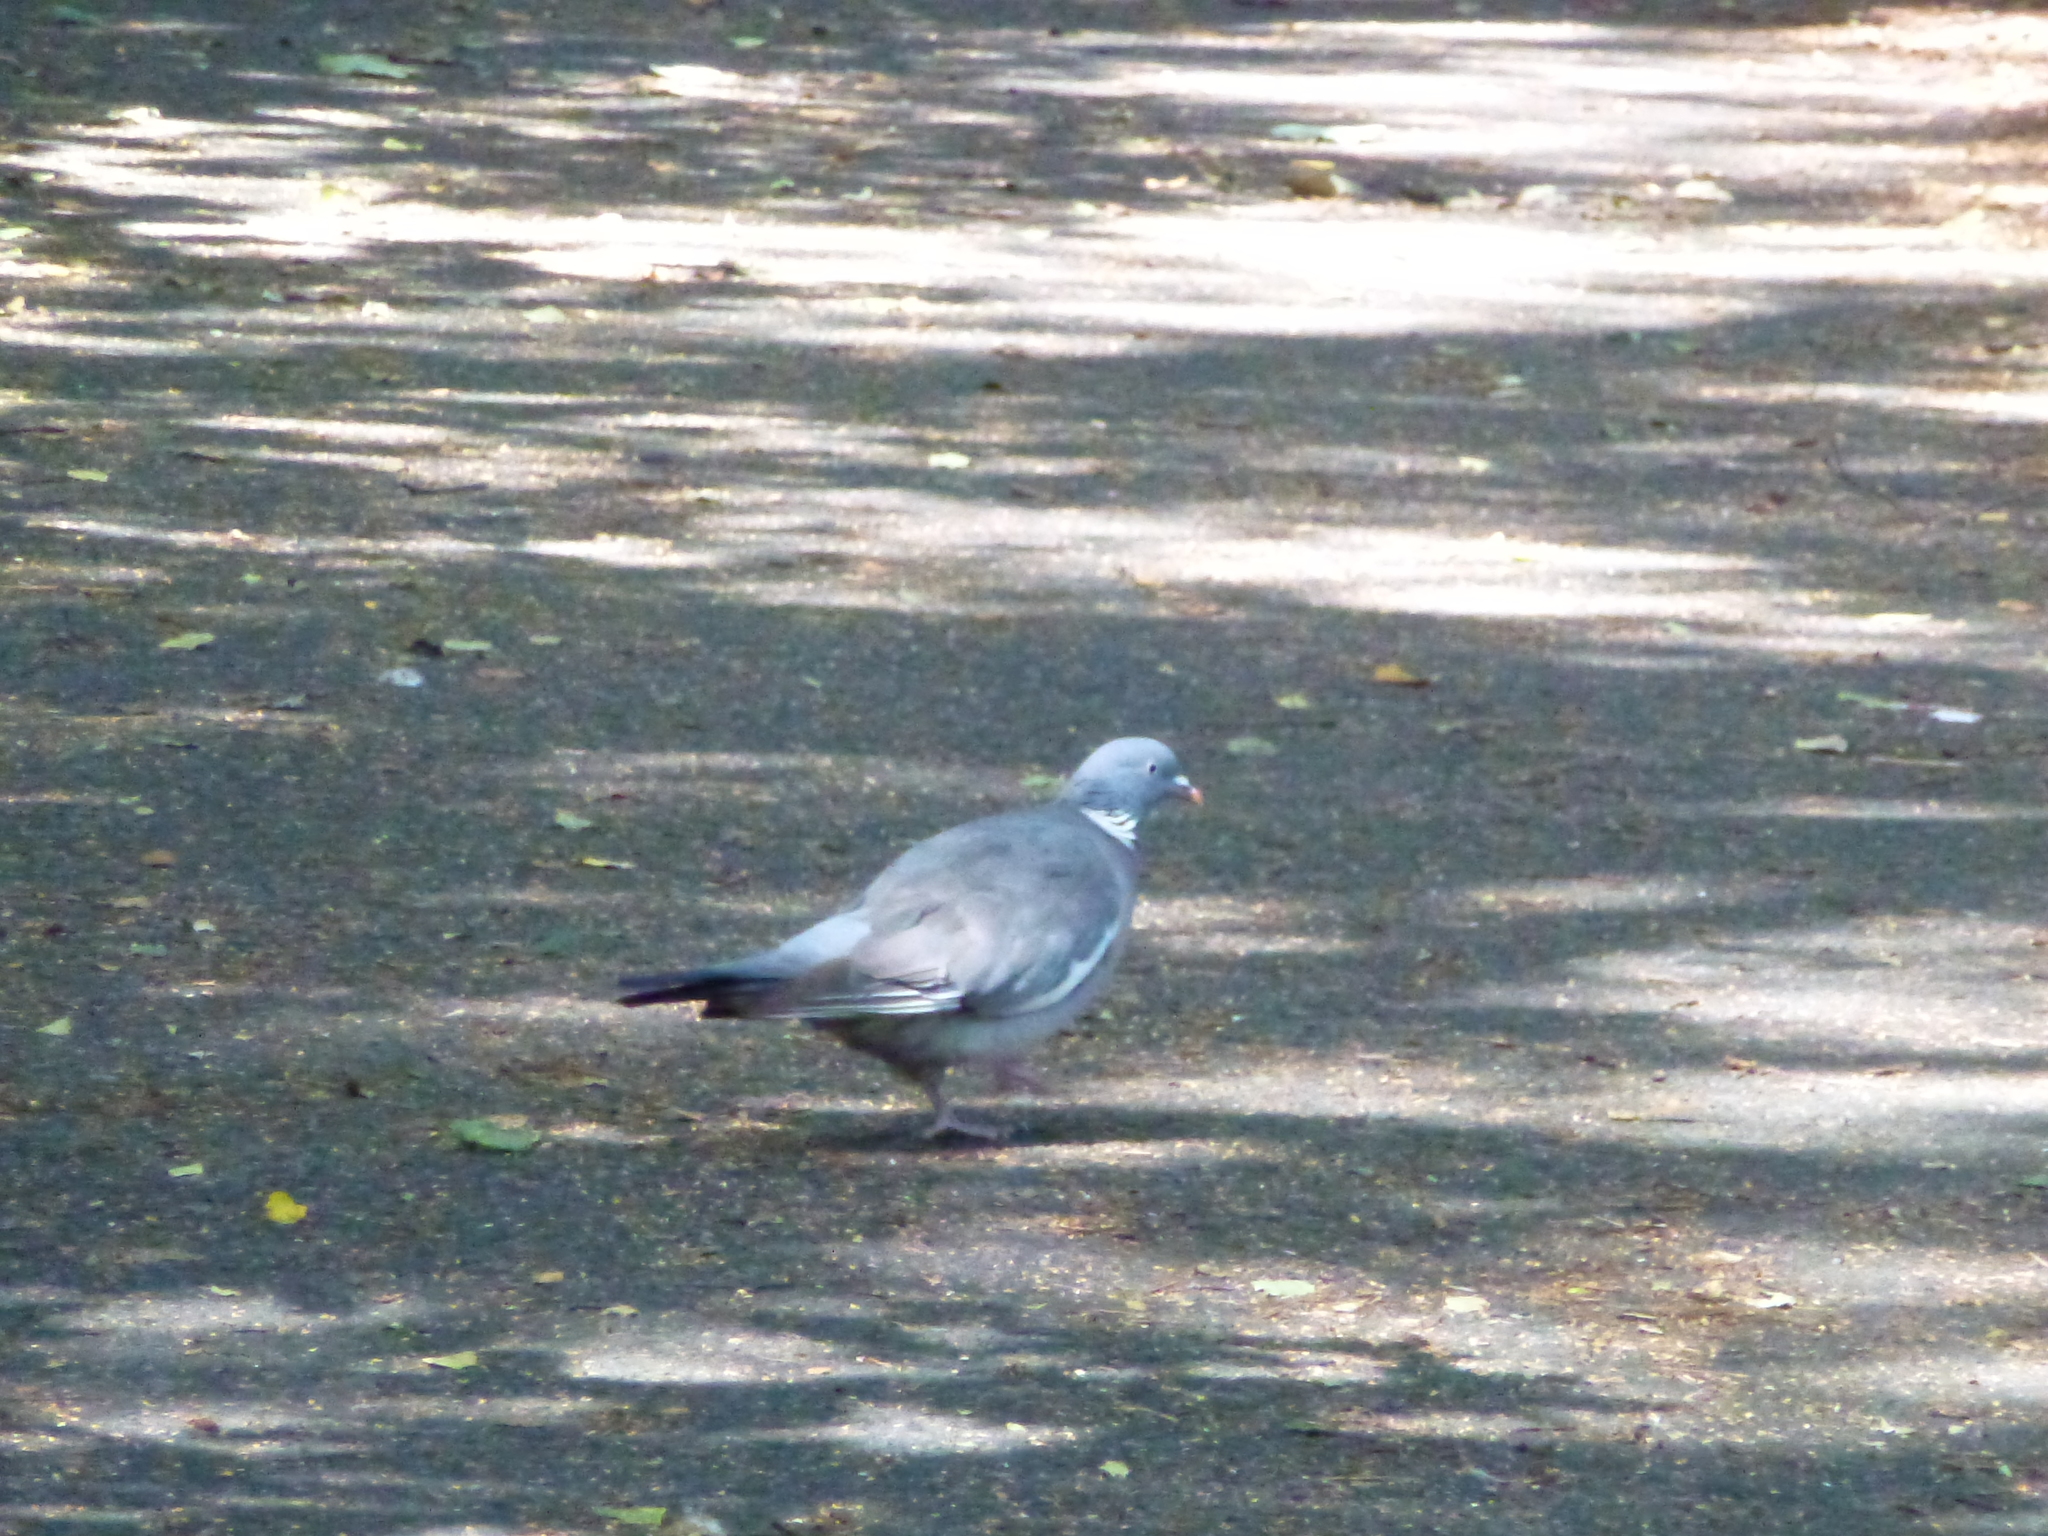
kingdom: Animalia
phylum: Chordata
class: Aves
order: Columbiformes
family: Columbidae
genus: Columba
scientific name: Columba palumbus
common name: Common wood pigeon
